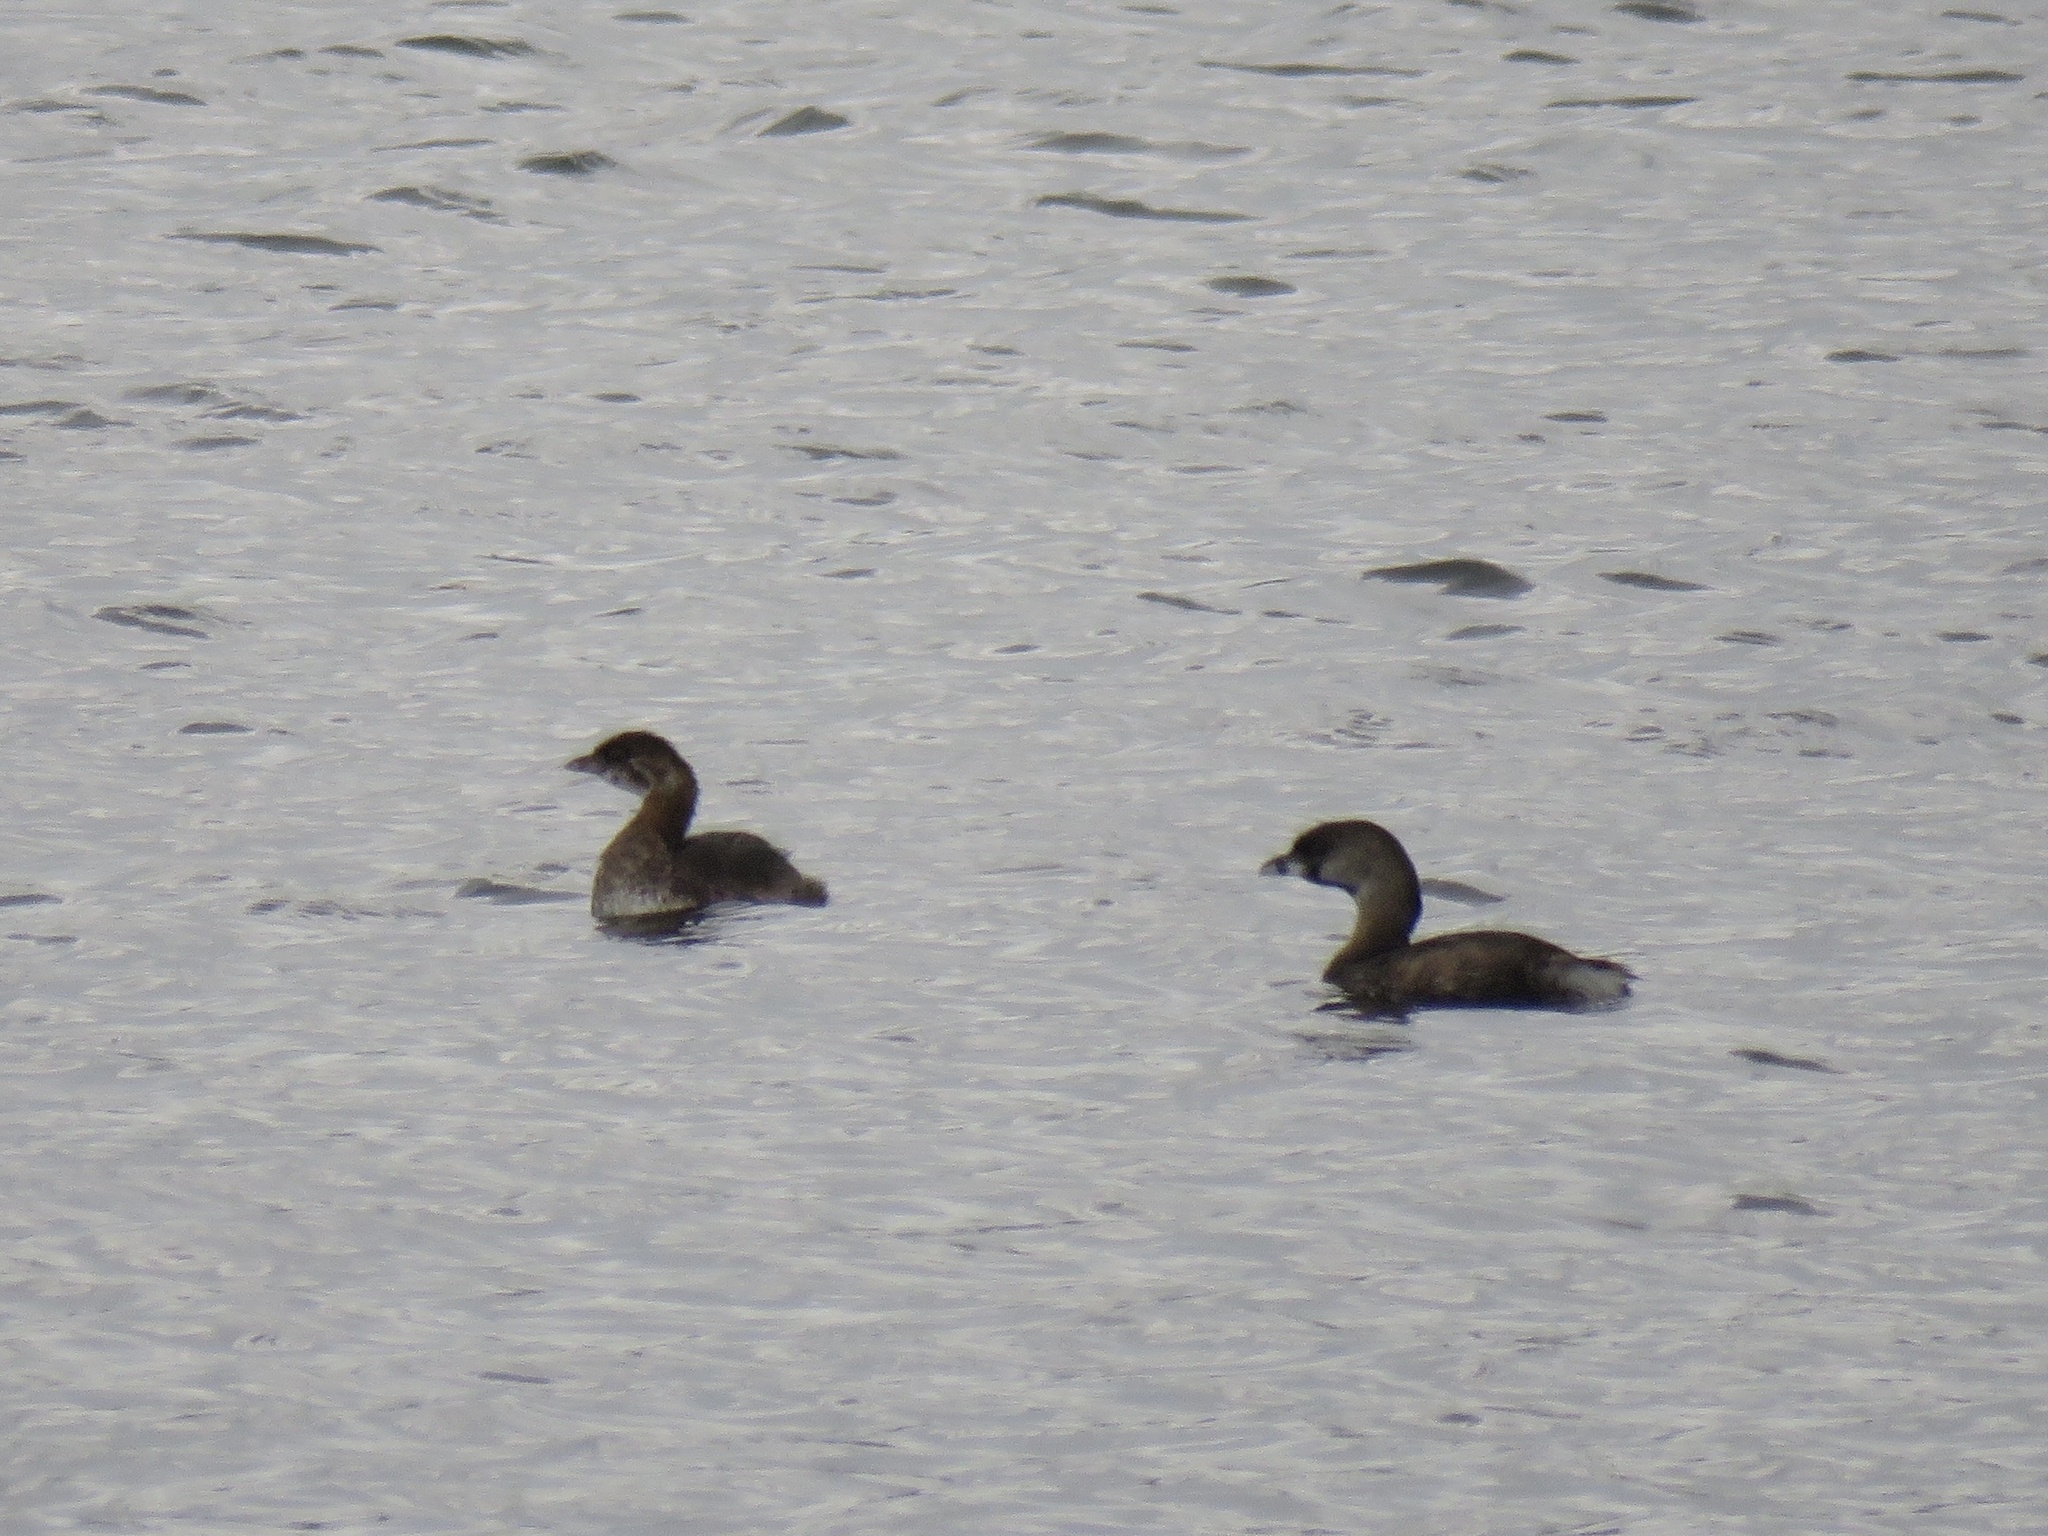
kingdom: Animalia
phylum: Chordata
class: Aves
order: Podicipediformes
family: Podicipedidae
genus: Podilymbus
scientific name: Podilymbus podiceps
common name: Pied-billed grebe
